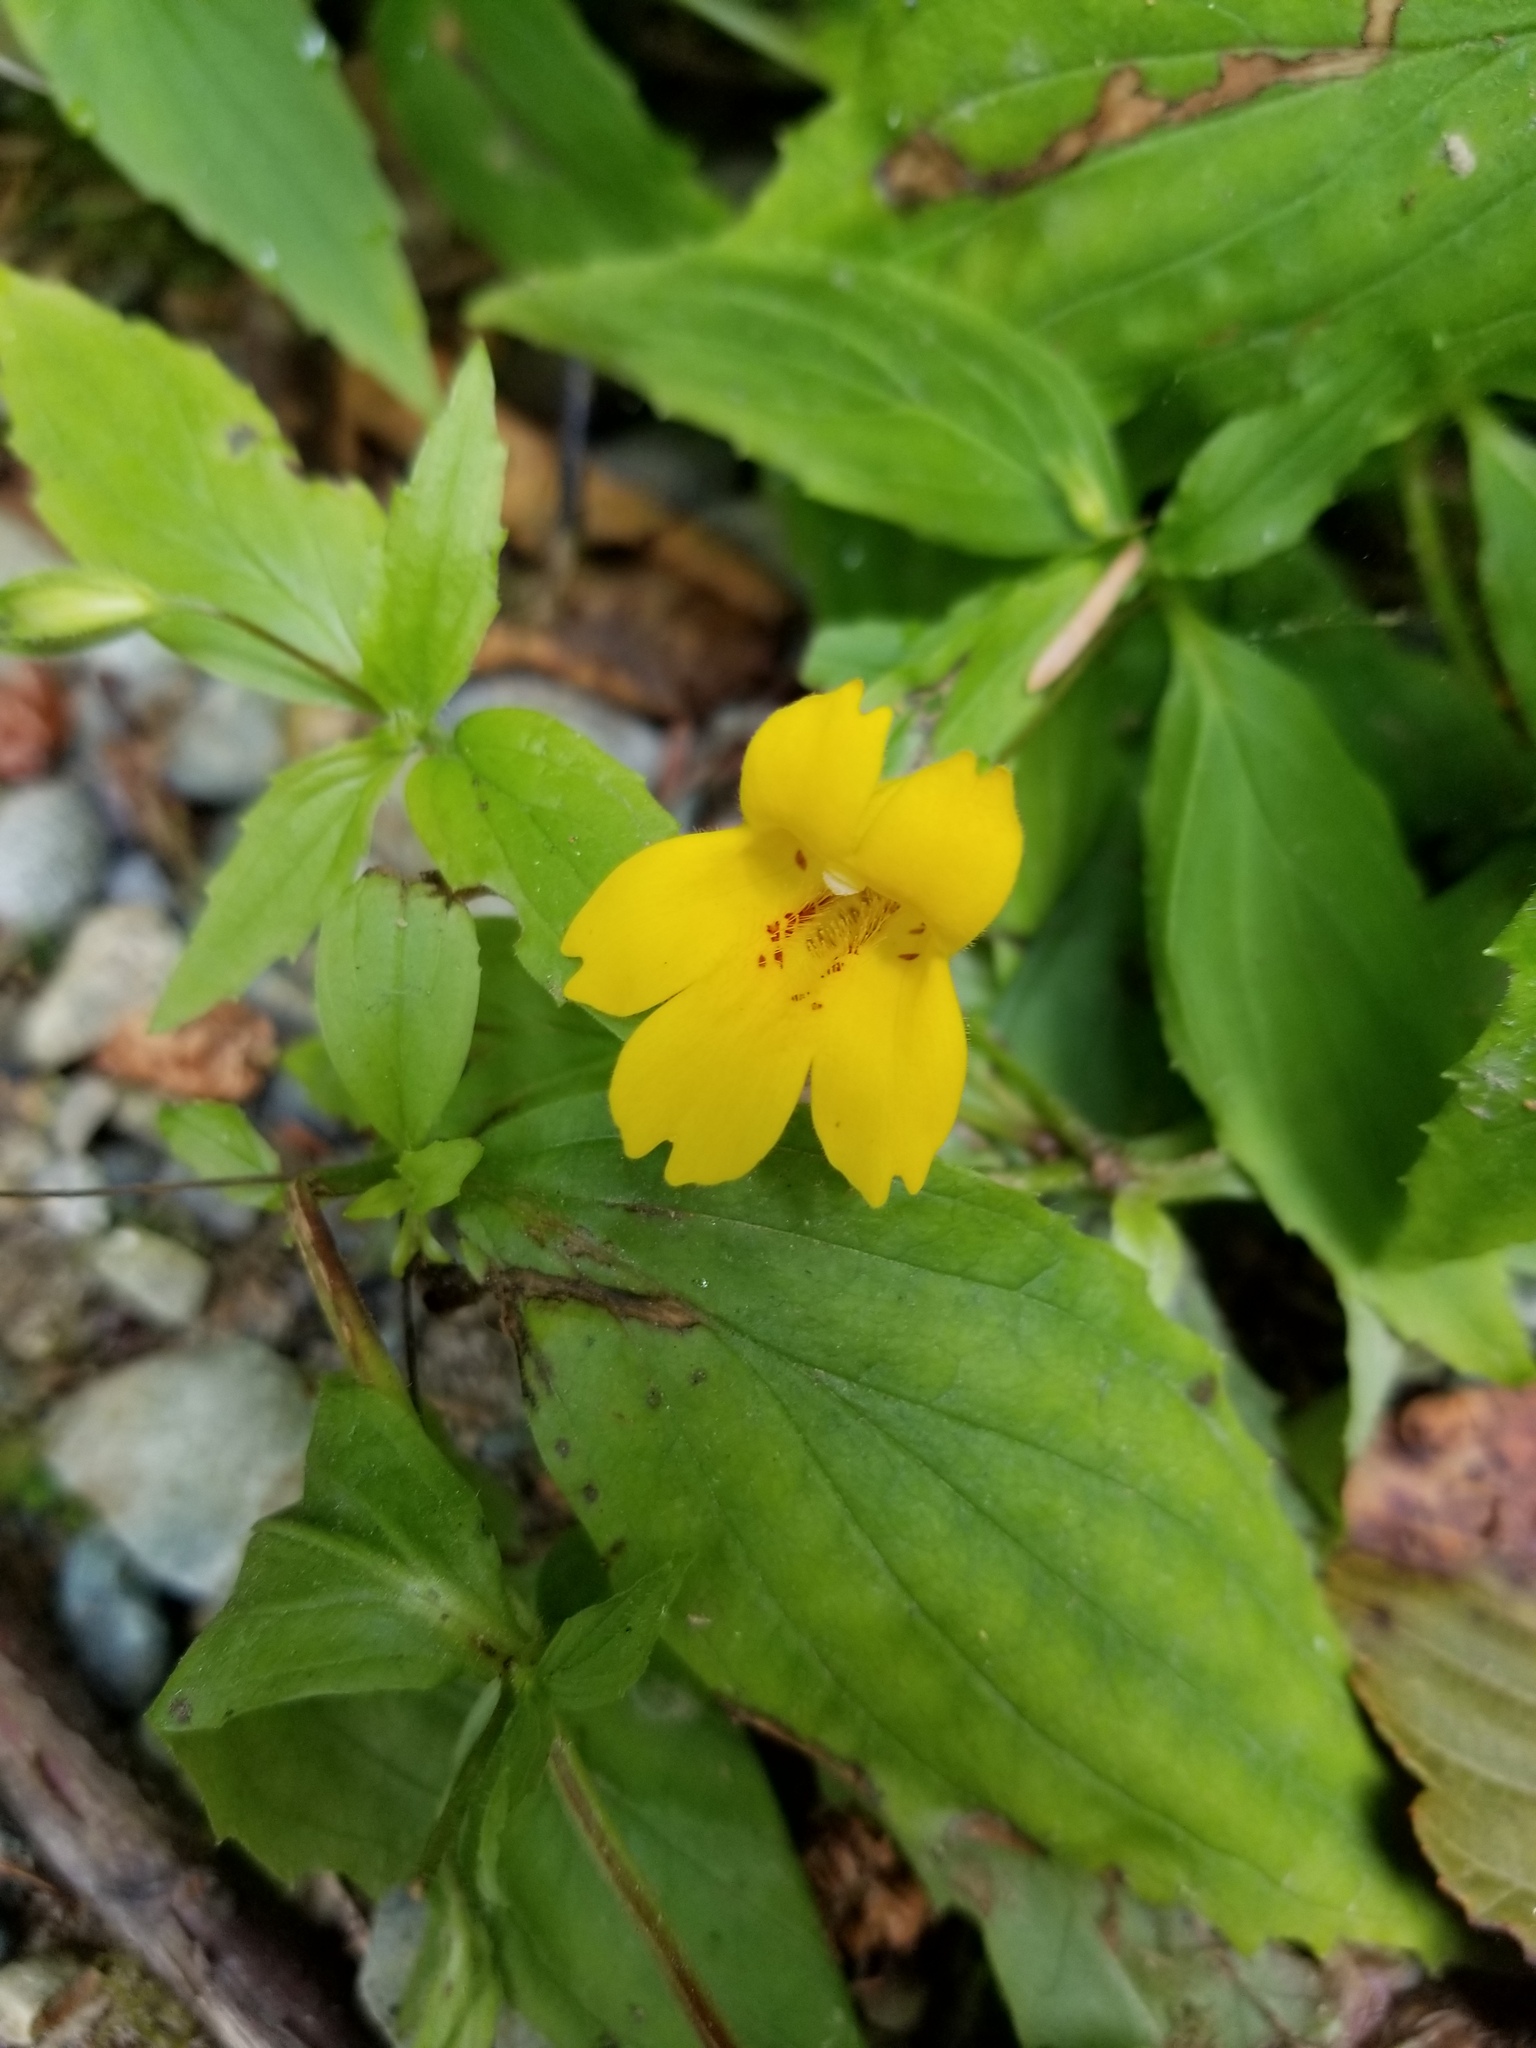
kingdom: Plantae
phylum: Tracheophyta
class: Magnoliopsida
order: Lamiales
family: Phrymaceae
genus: Erythranthe
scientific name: Erythranthe dentata
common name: Coastal monkeyflower
